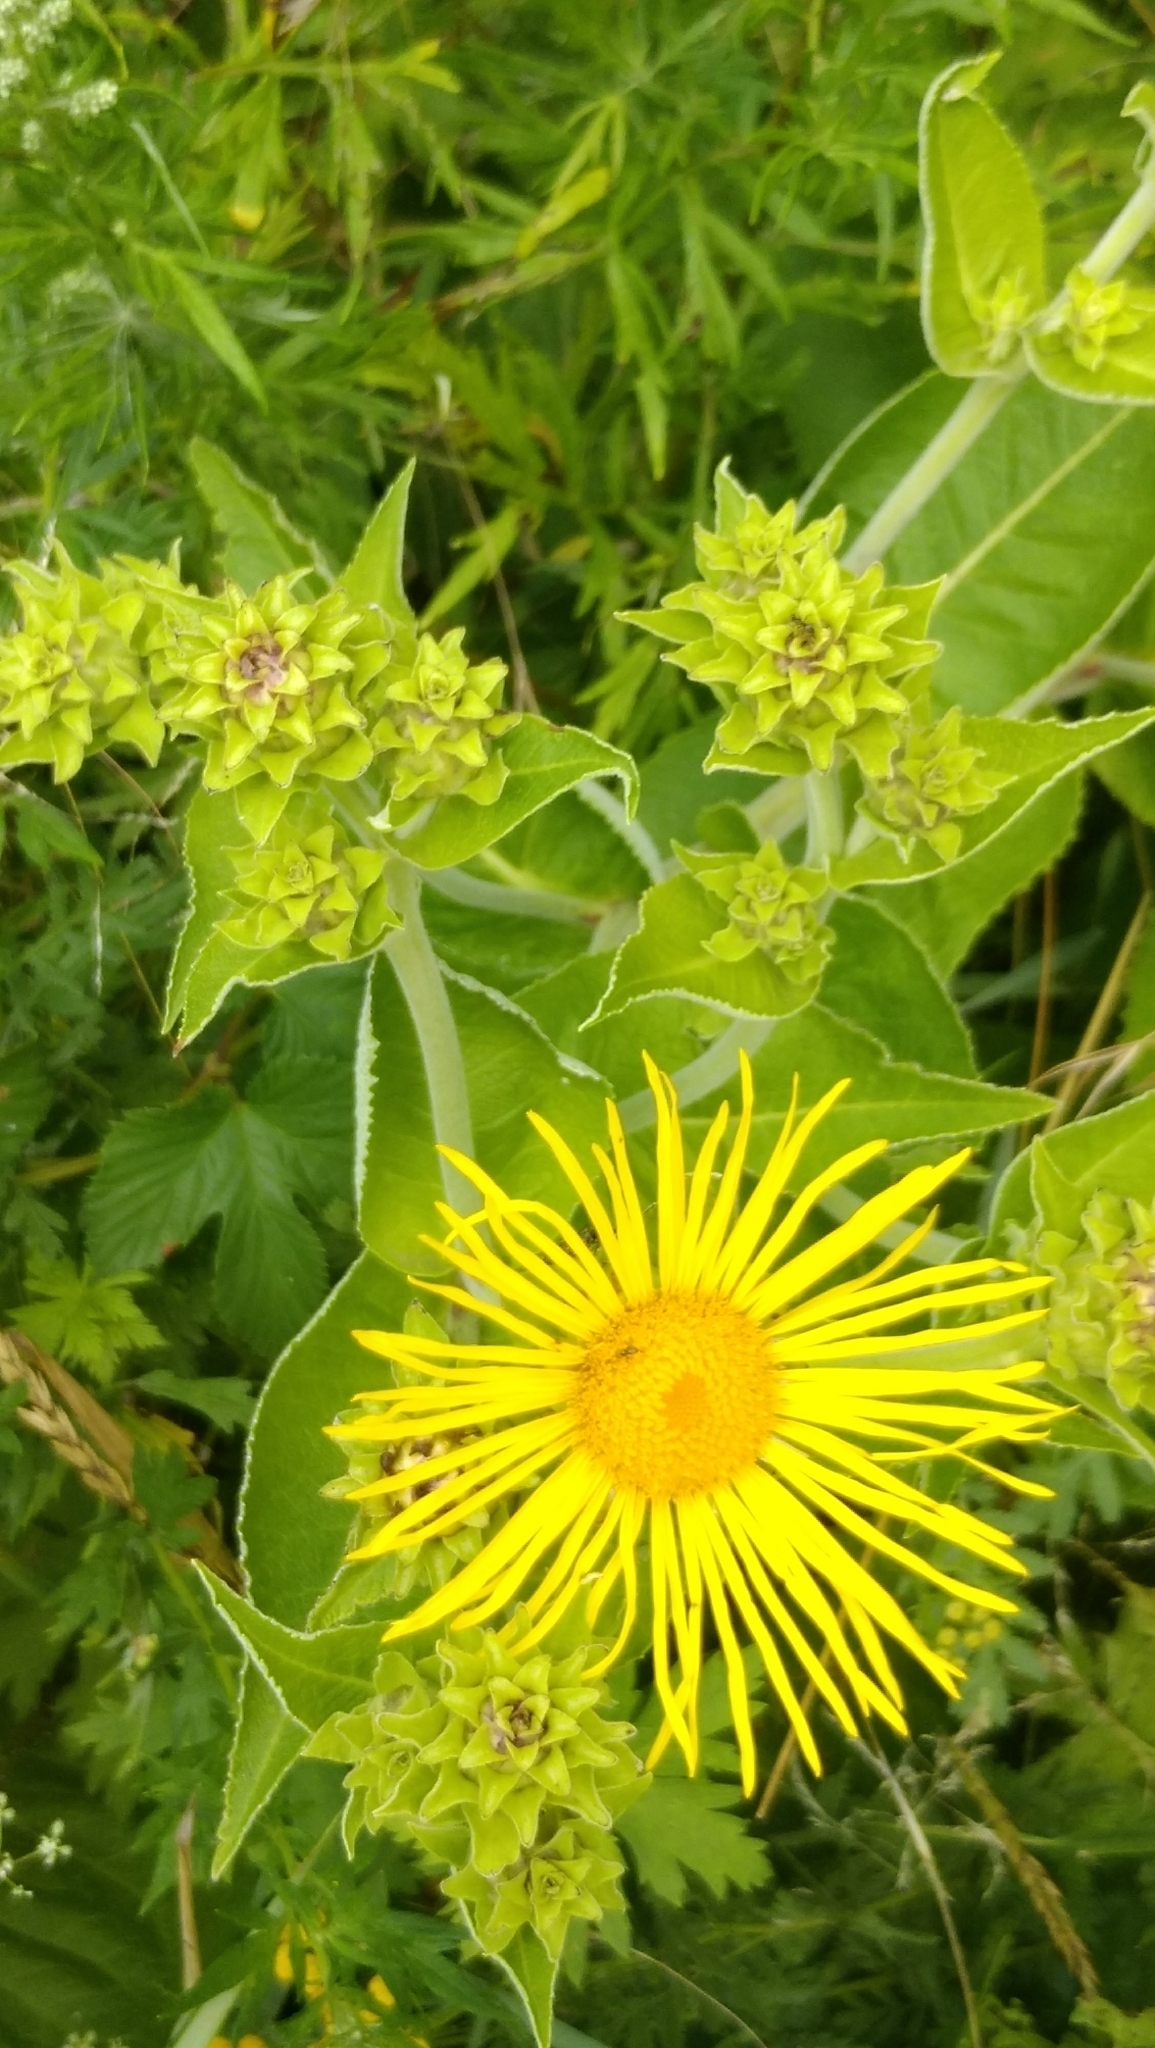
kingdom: Plantae
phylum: Tracheophyta
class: Magnoliopsida
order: Asterales
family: Asteraceae
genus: Inula
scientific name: Inula helenium
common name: Elecampane
